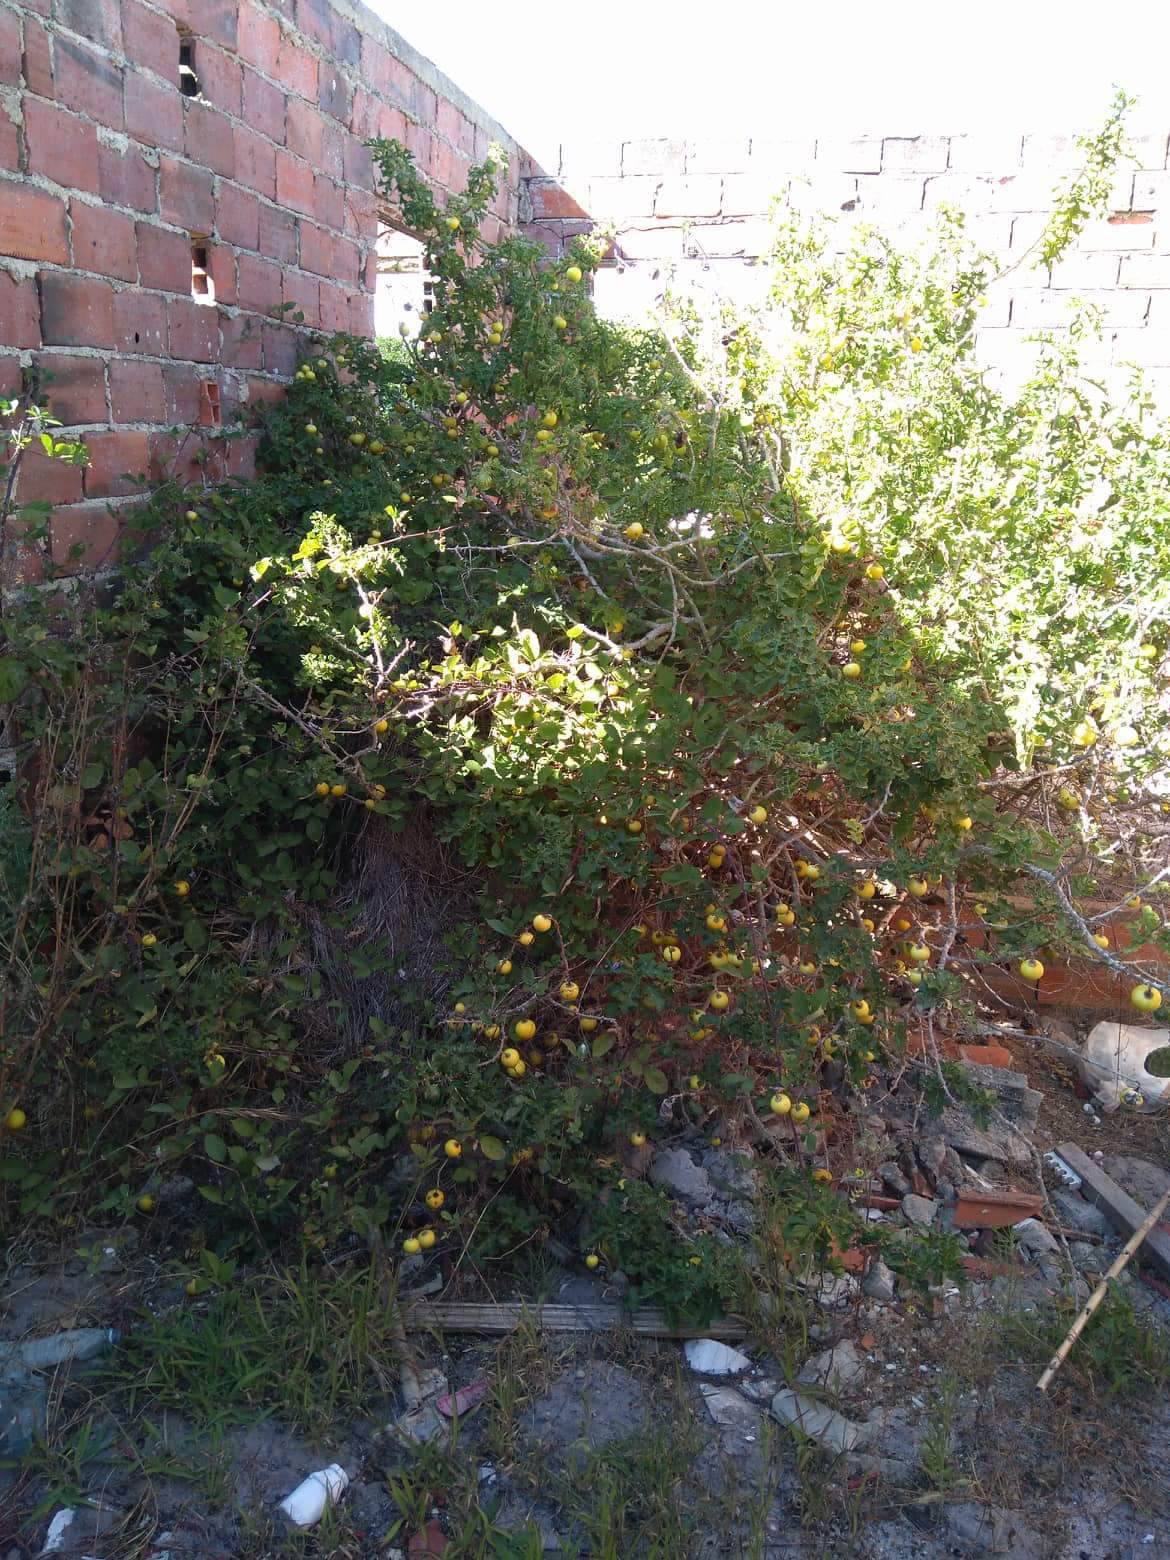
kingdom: Plantae
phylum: Tracheophyta
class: Magnoliopsida
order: Solanales
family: Solanaceae
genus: Solanum
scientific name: Solanum linnaeanum
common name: Nightshade
